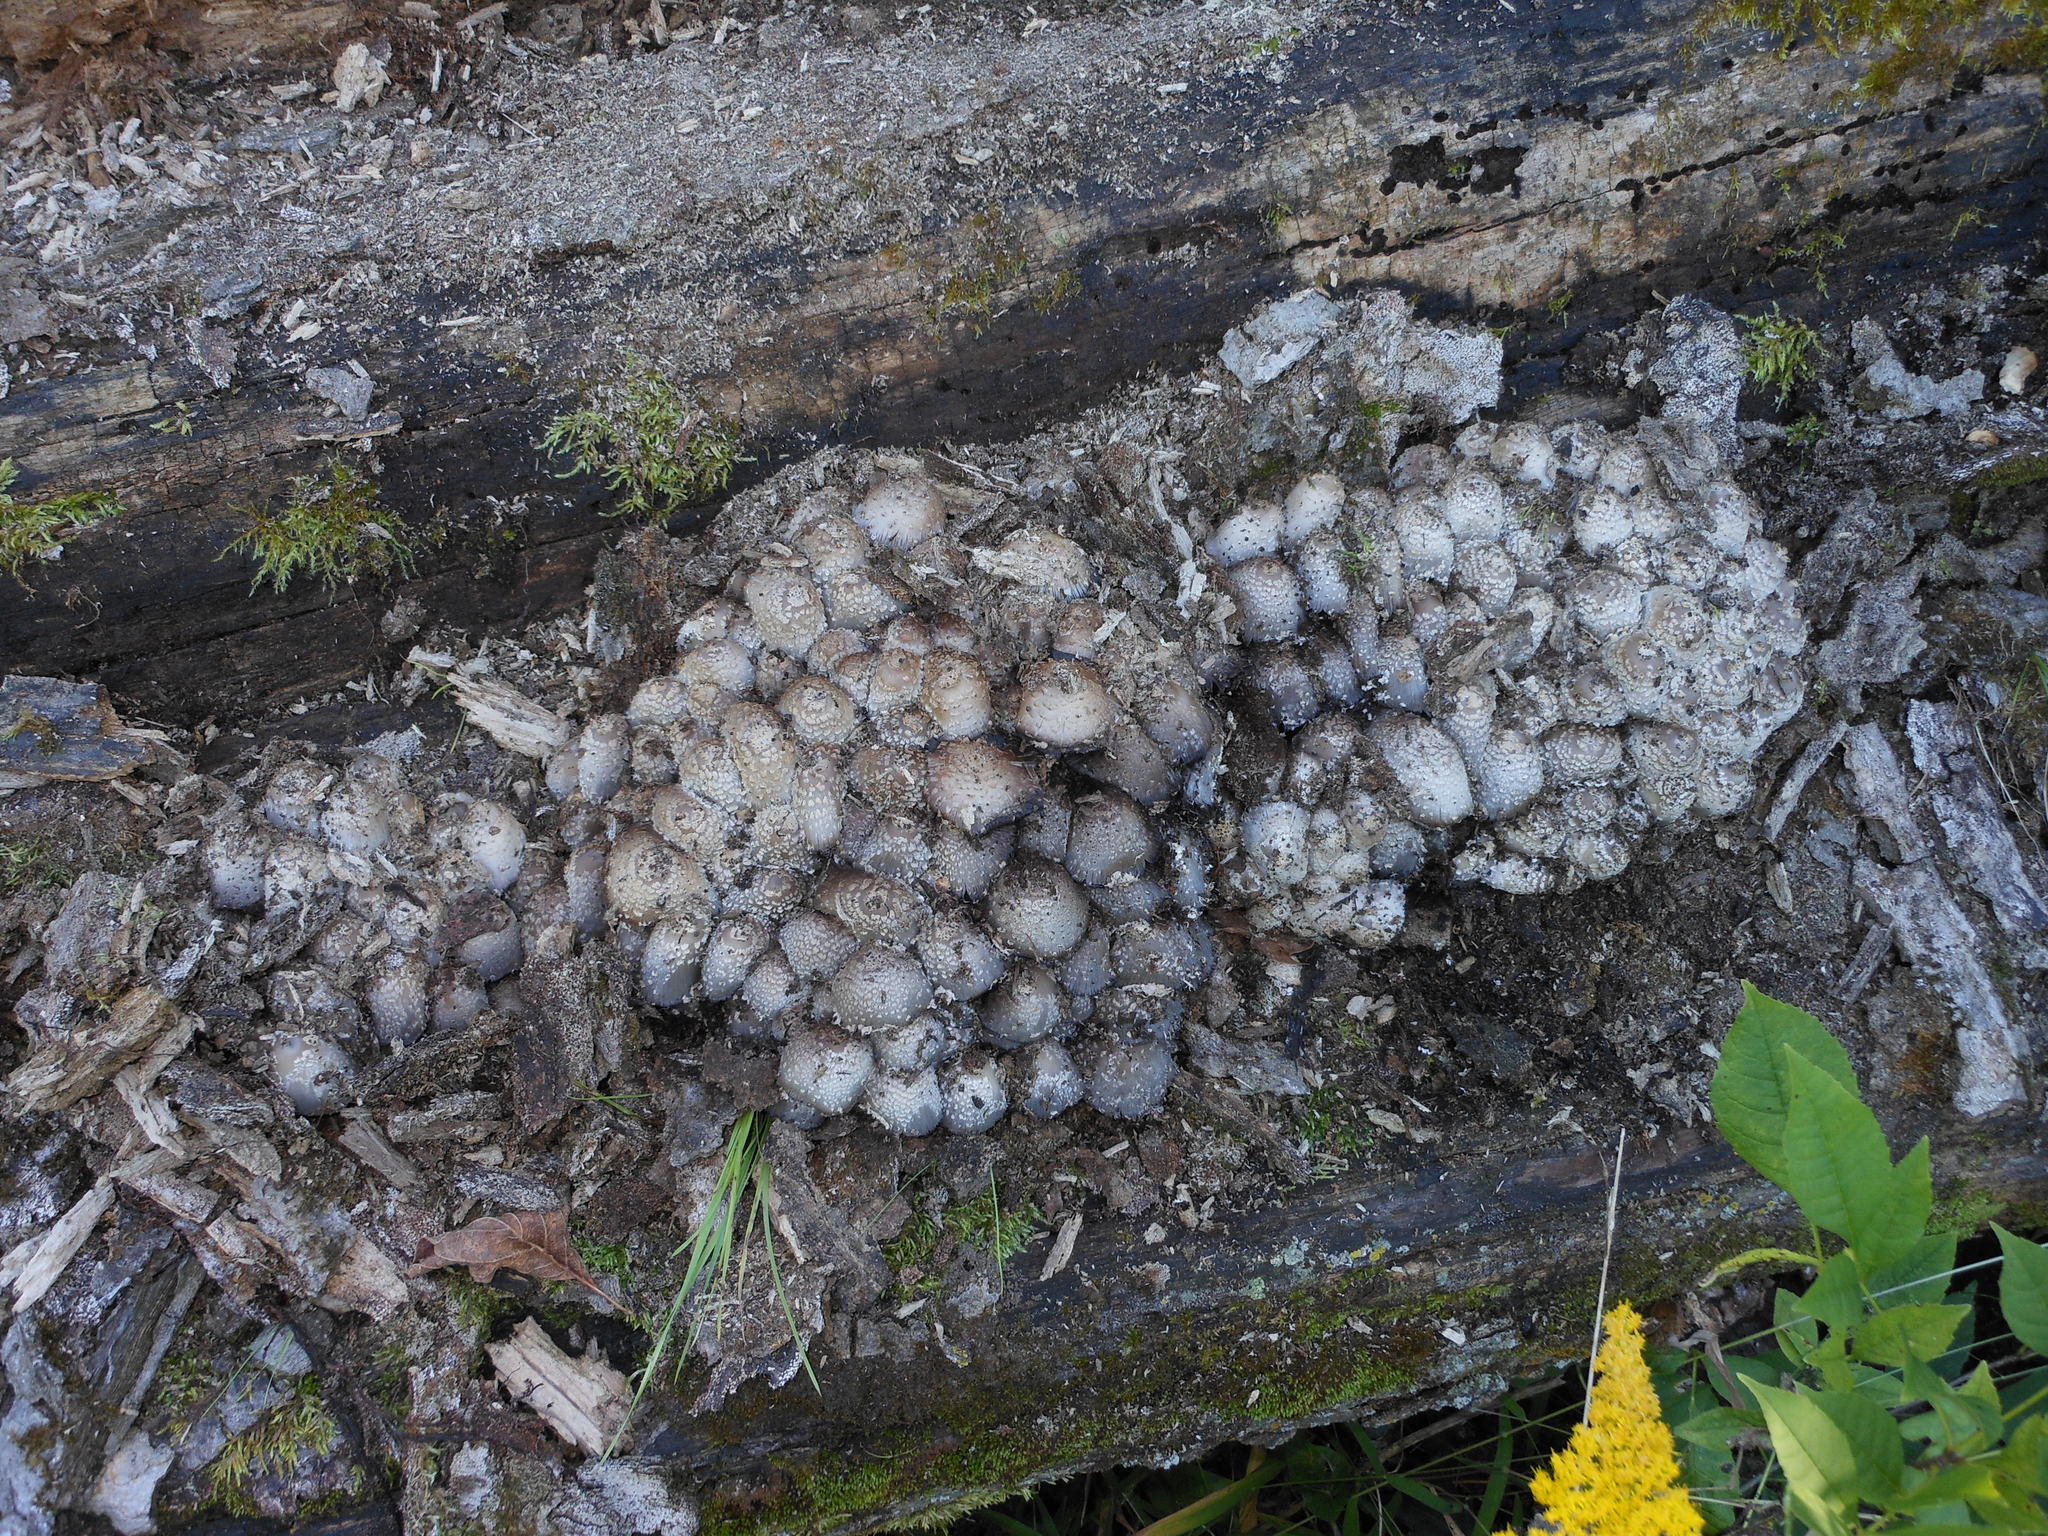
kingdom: Fungi
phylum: Basidiomycota
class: Agaricomycetes
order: Agaricales
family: Psathyrellaceae
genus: Coprinopsis
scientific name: Coprinopsis romagnesiana
